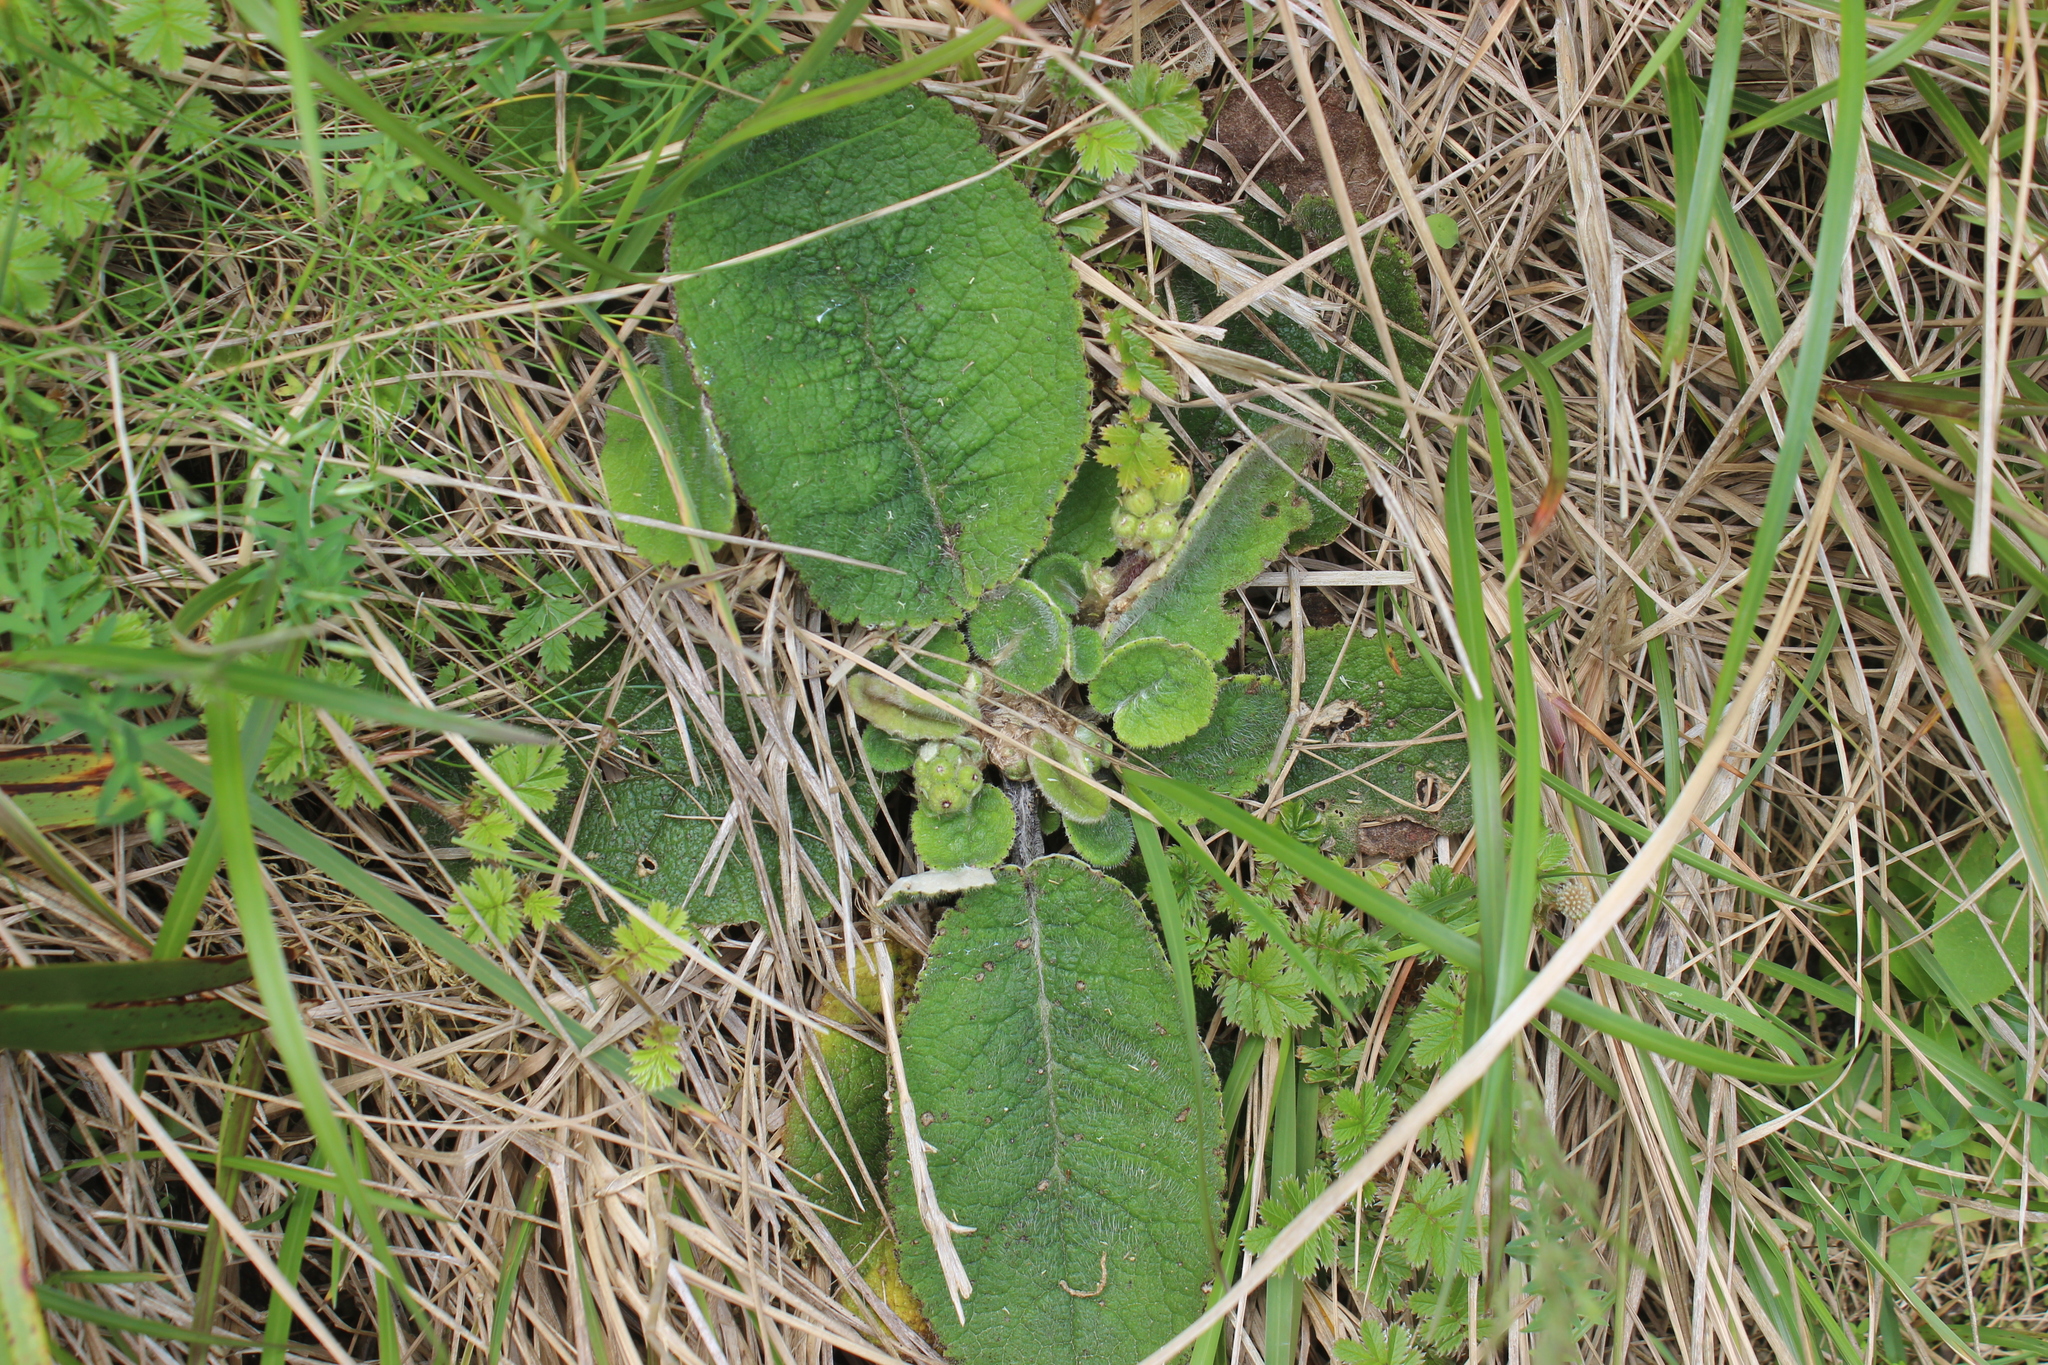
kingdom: Plantae
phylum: Tracheophyta
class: Magnoliopsida
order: Asterales
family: Asteraceae
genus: Brachyglottis
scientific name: Brachyglottis lagopus
